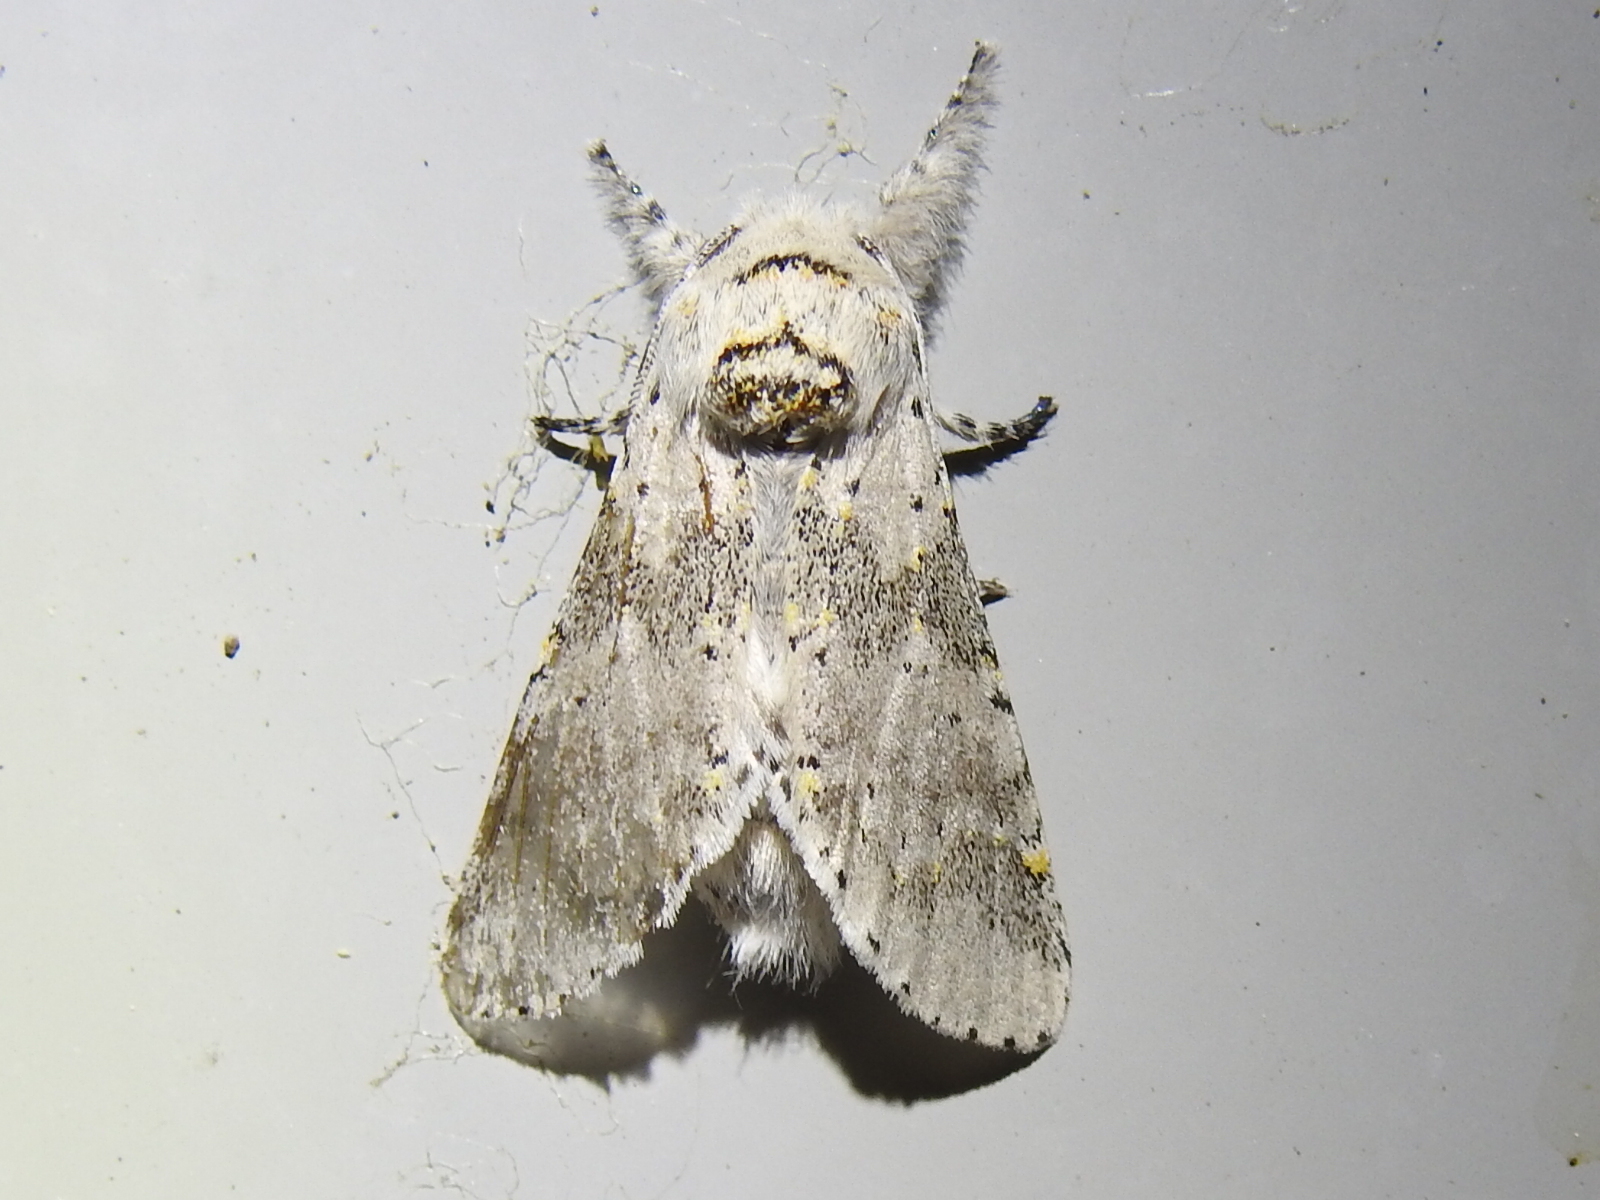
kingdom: Animalia
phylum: Arthropoda
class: Insecta
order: Lepidoptera
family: Notodontidae
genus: Furcula
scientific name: Furcula cinerea
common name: Gray furcula
